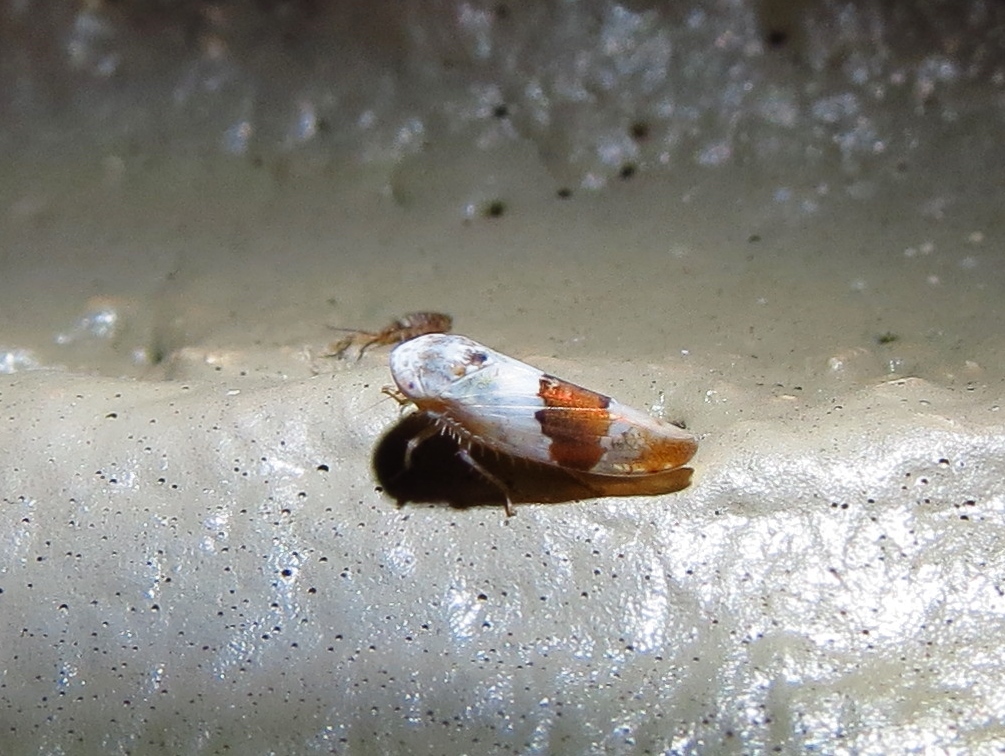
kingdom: Animalia
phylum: Arthropoda
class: Insecta
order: Hemiptera
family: Cicadellidae
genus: Norvellina
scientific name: Norvellina seminuda
